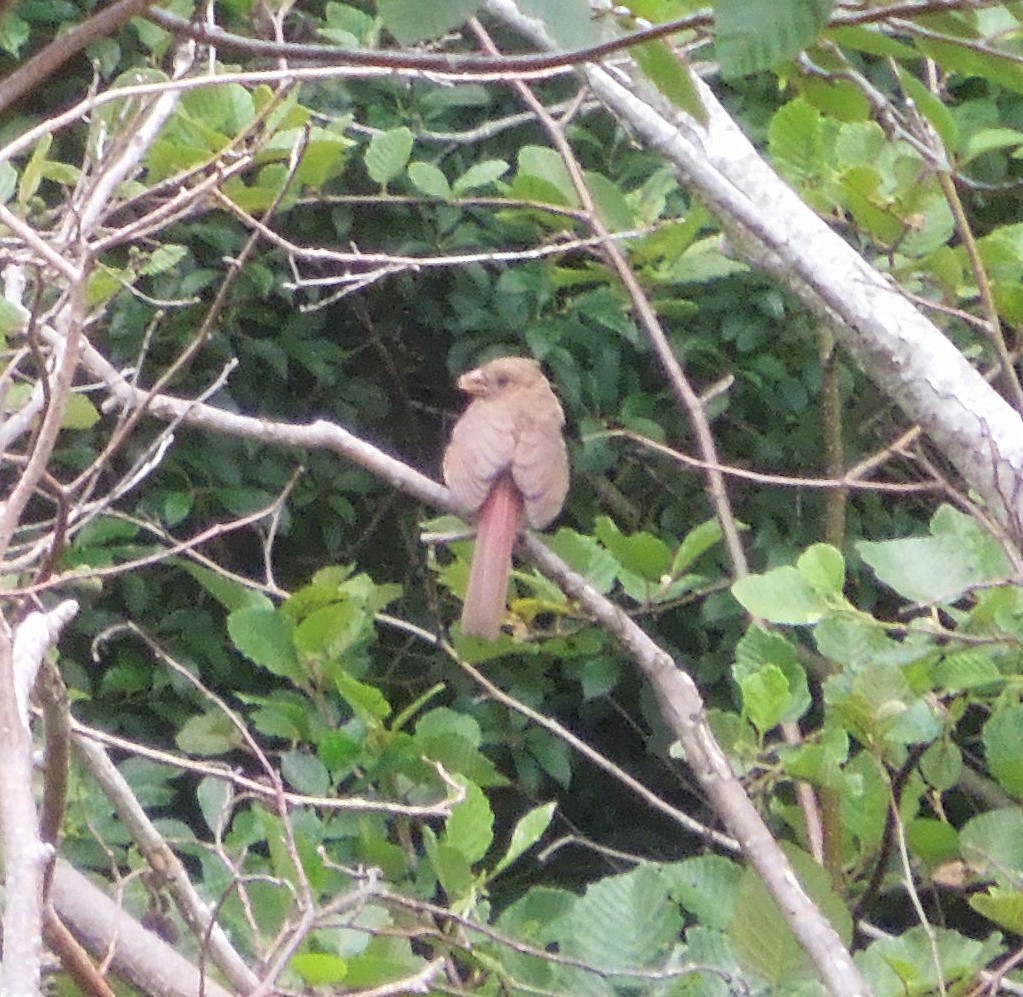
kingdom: Animalia
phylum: Chordata
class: Aves
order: Passeriformes
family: Cardinalidae
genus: Cardinalis
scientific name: Cardinalis cardinalis
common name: Northern cardinal
